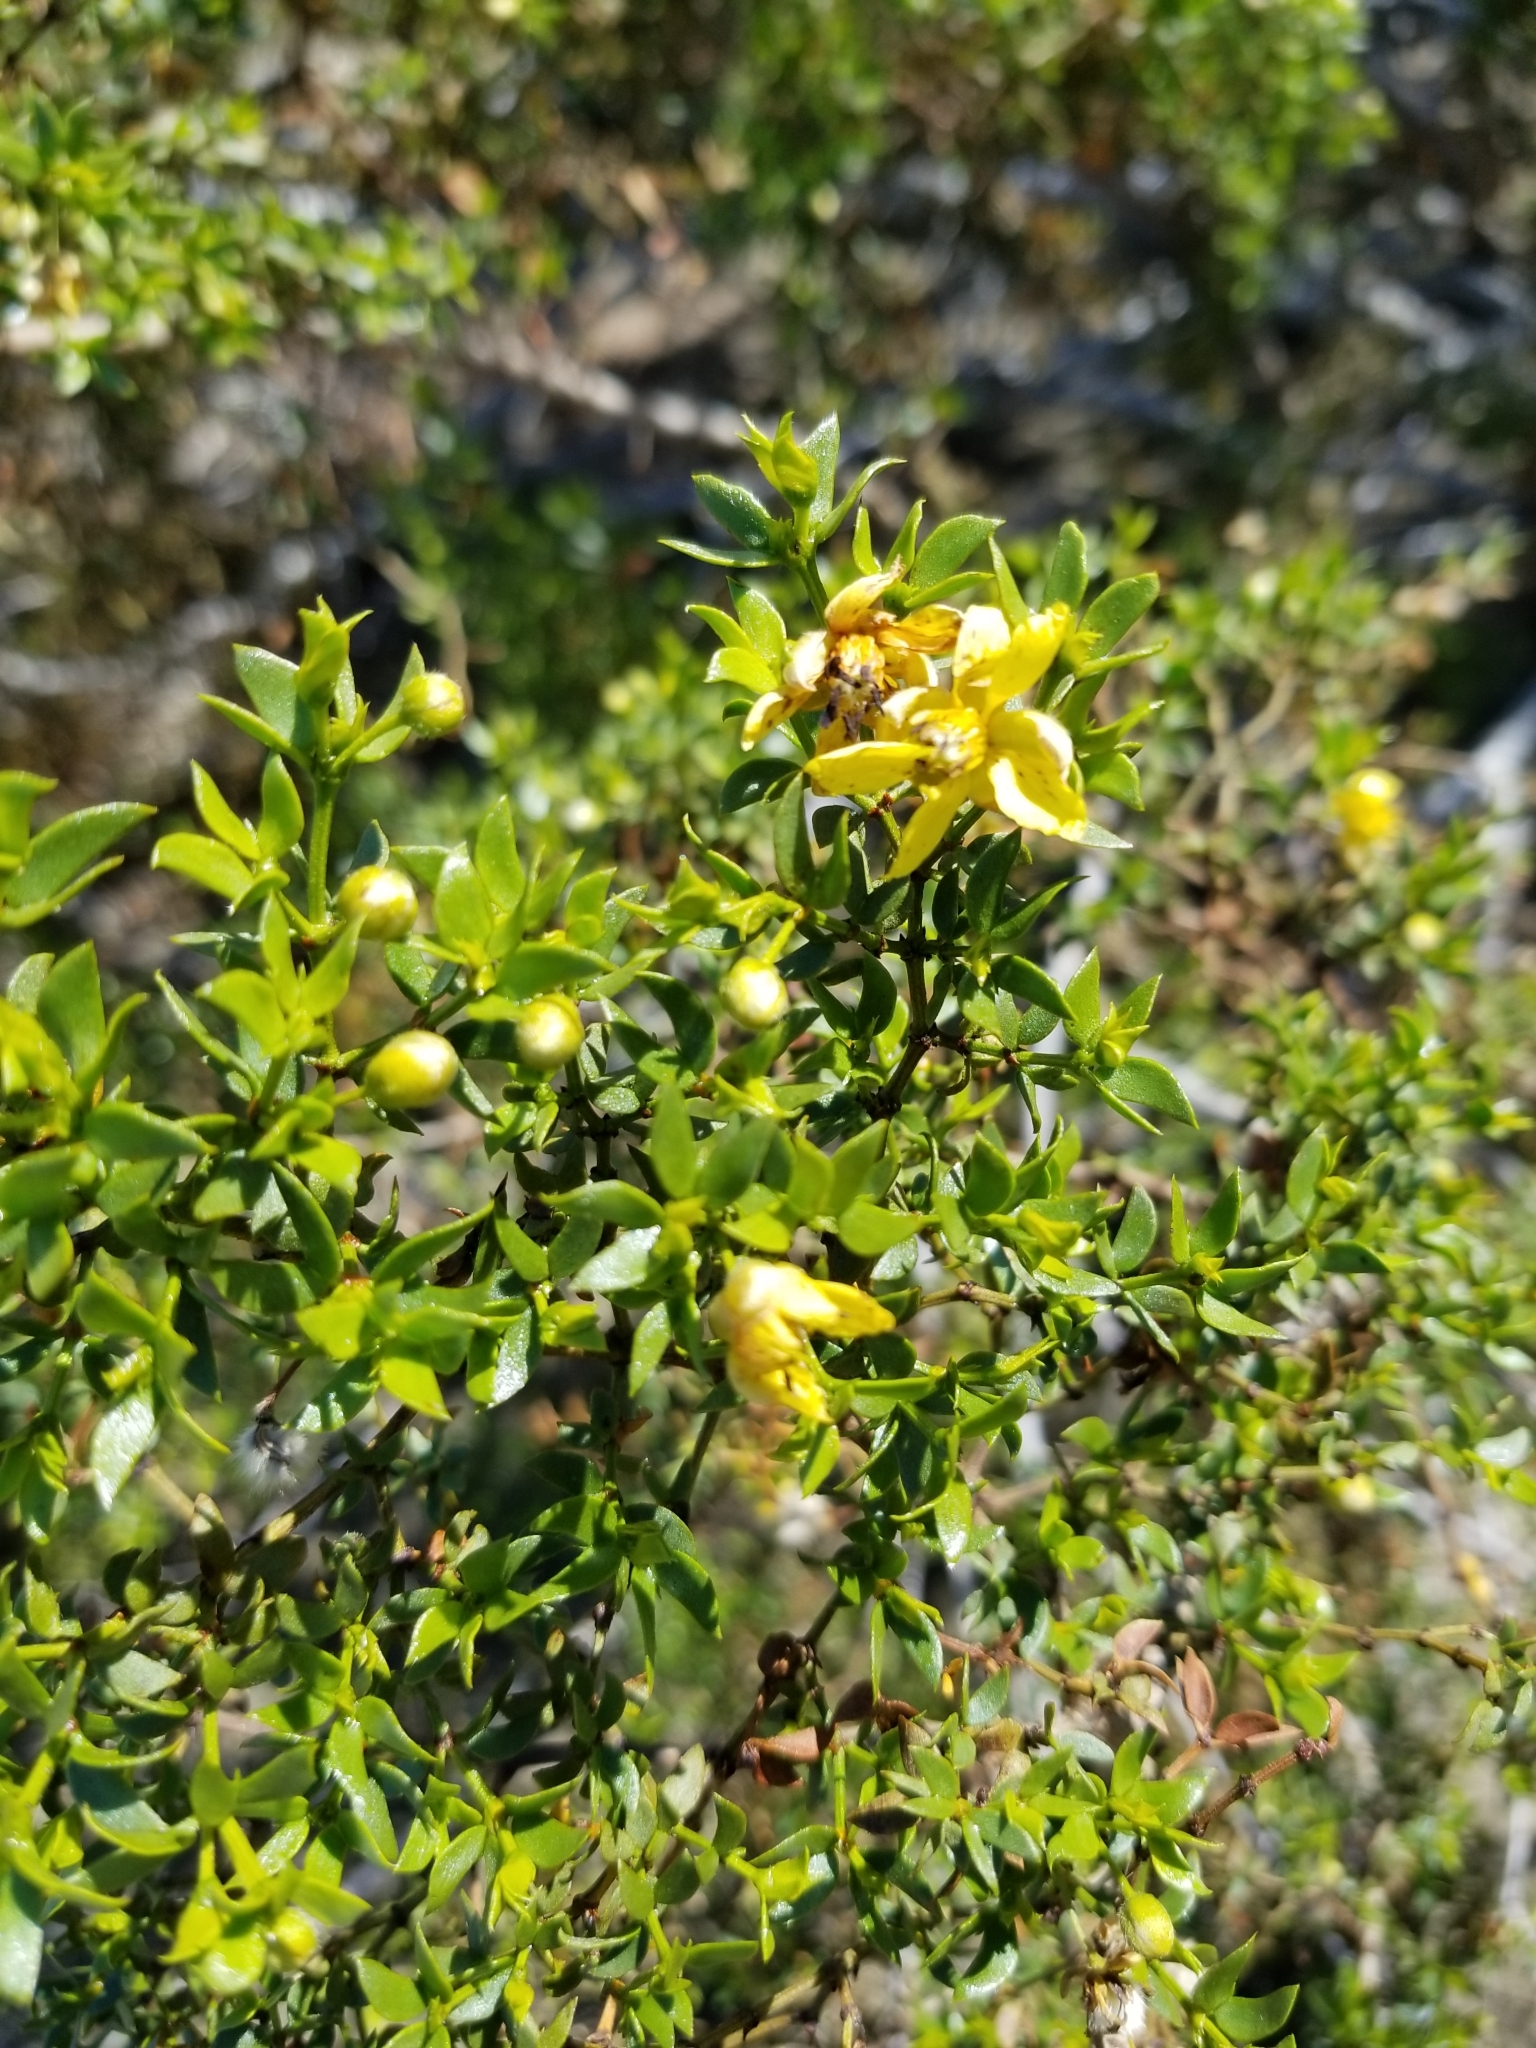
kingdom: Plantae
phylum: Tracheophyta
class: Magnoliopsida
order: Zygophyllales
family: Zygophyllaceae
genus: Larrea
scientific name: Larrea tridentata
